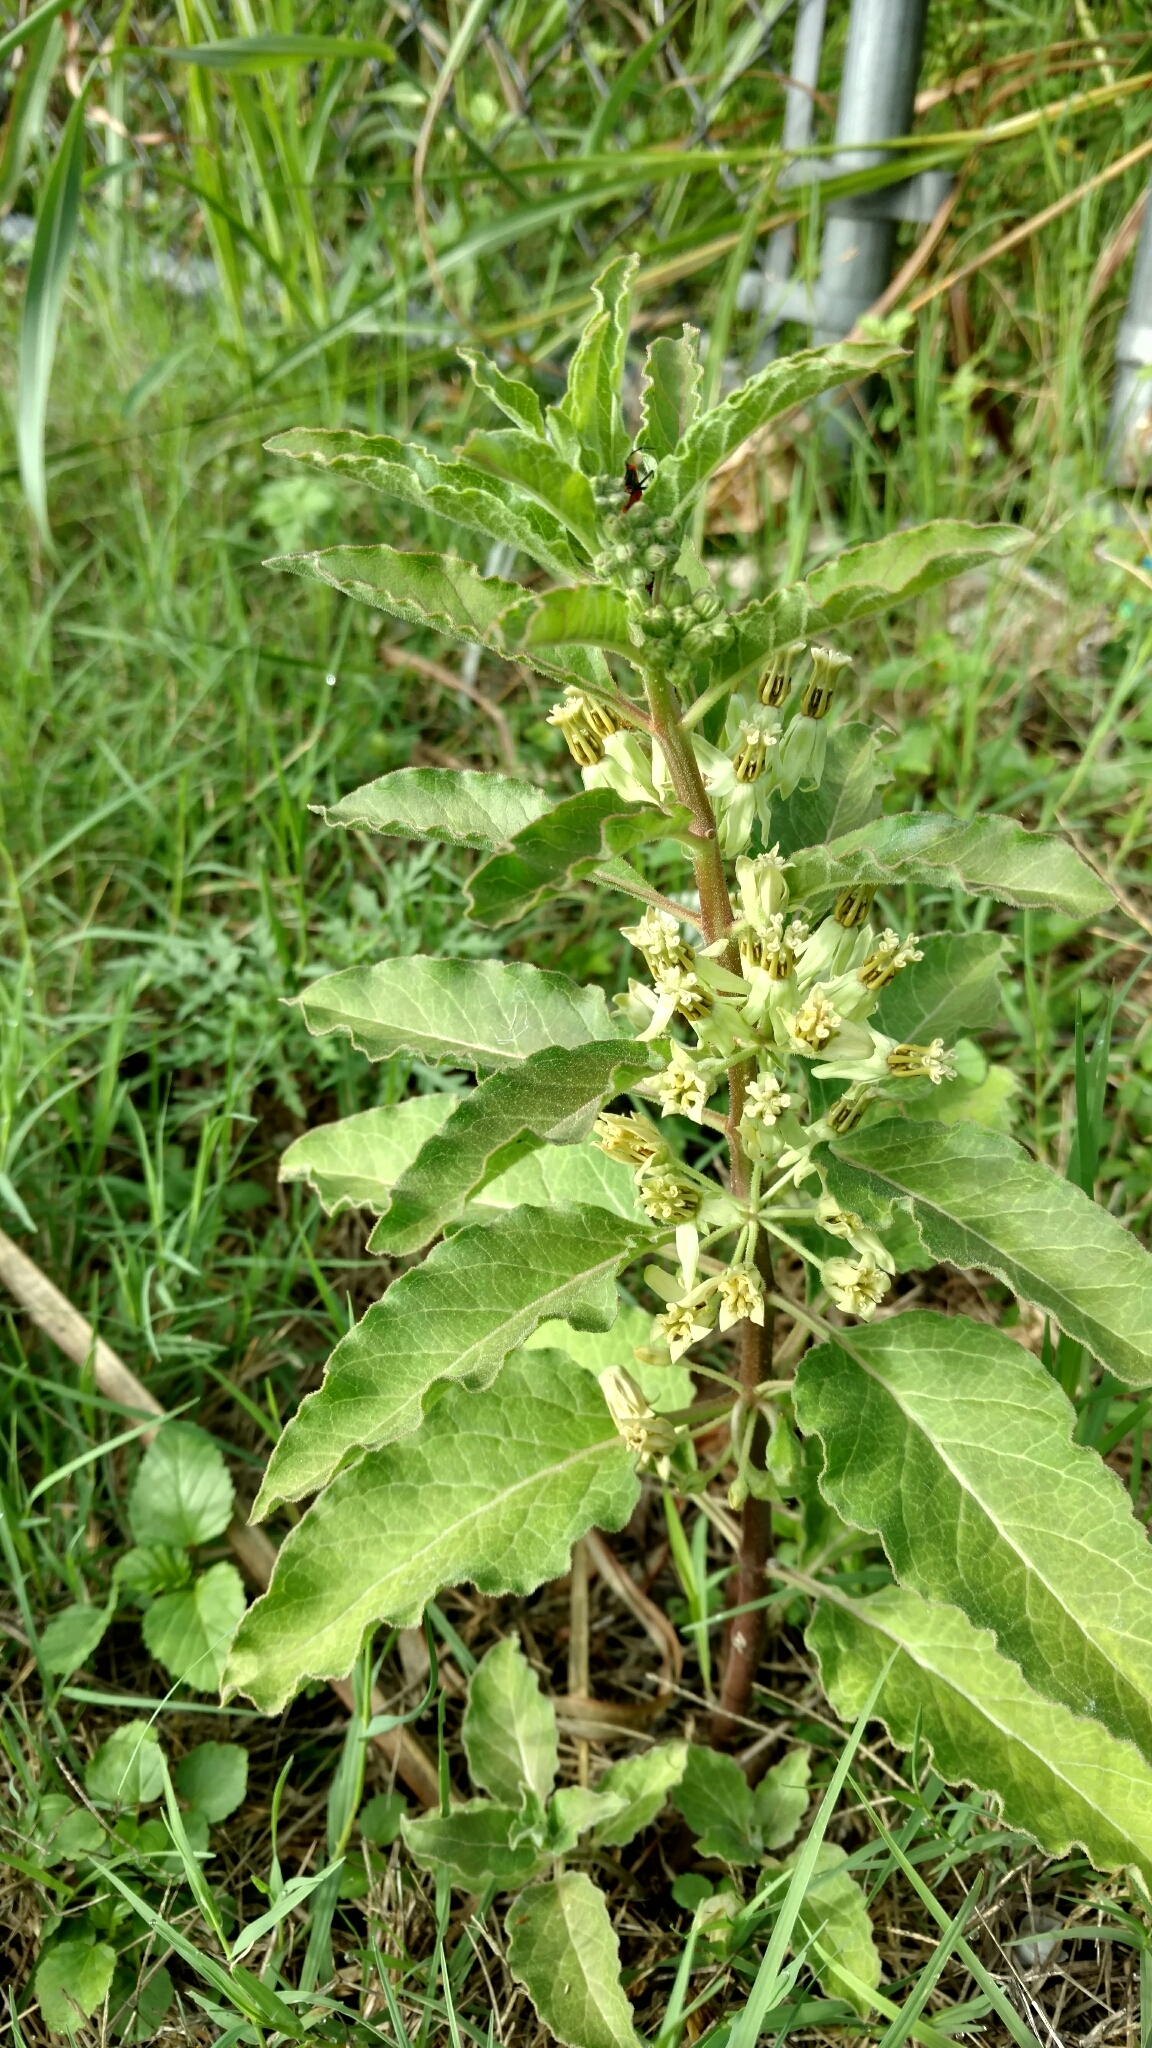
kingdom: Plantae
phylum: Tracheophyta
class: Magnoliopsida
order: Gentianales
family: Apocynaceae
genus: Asclepias
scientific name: Asclepias oenotheroides
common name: Zizotes milkweed
